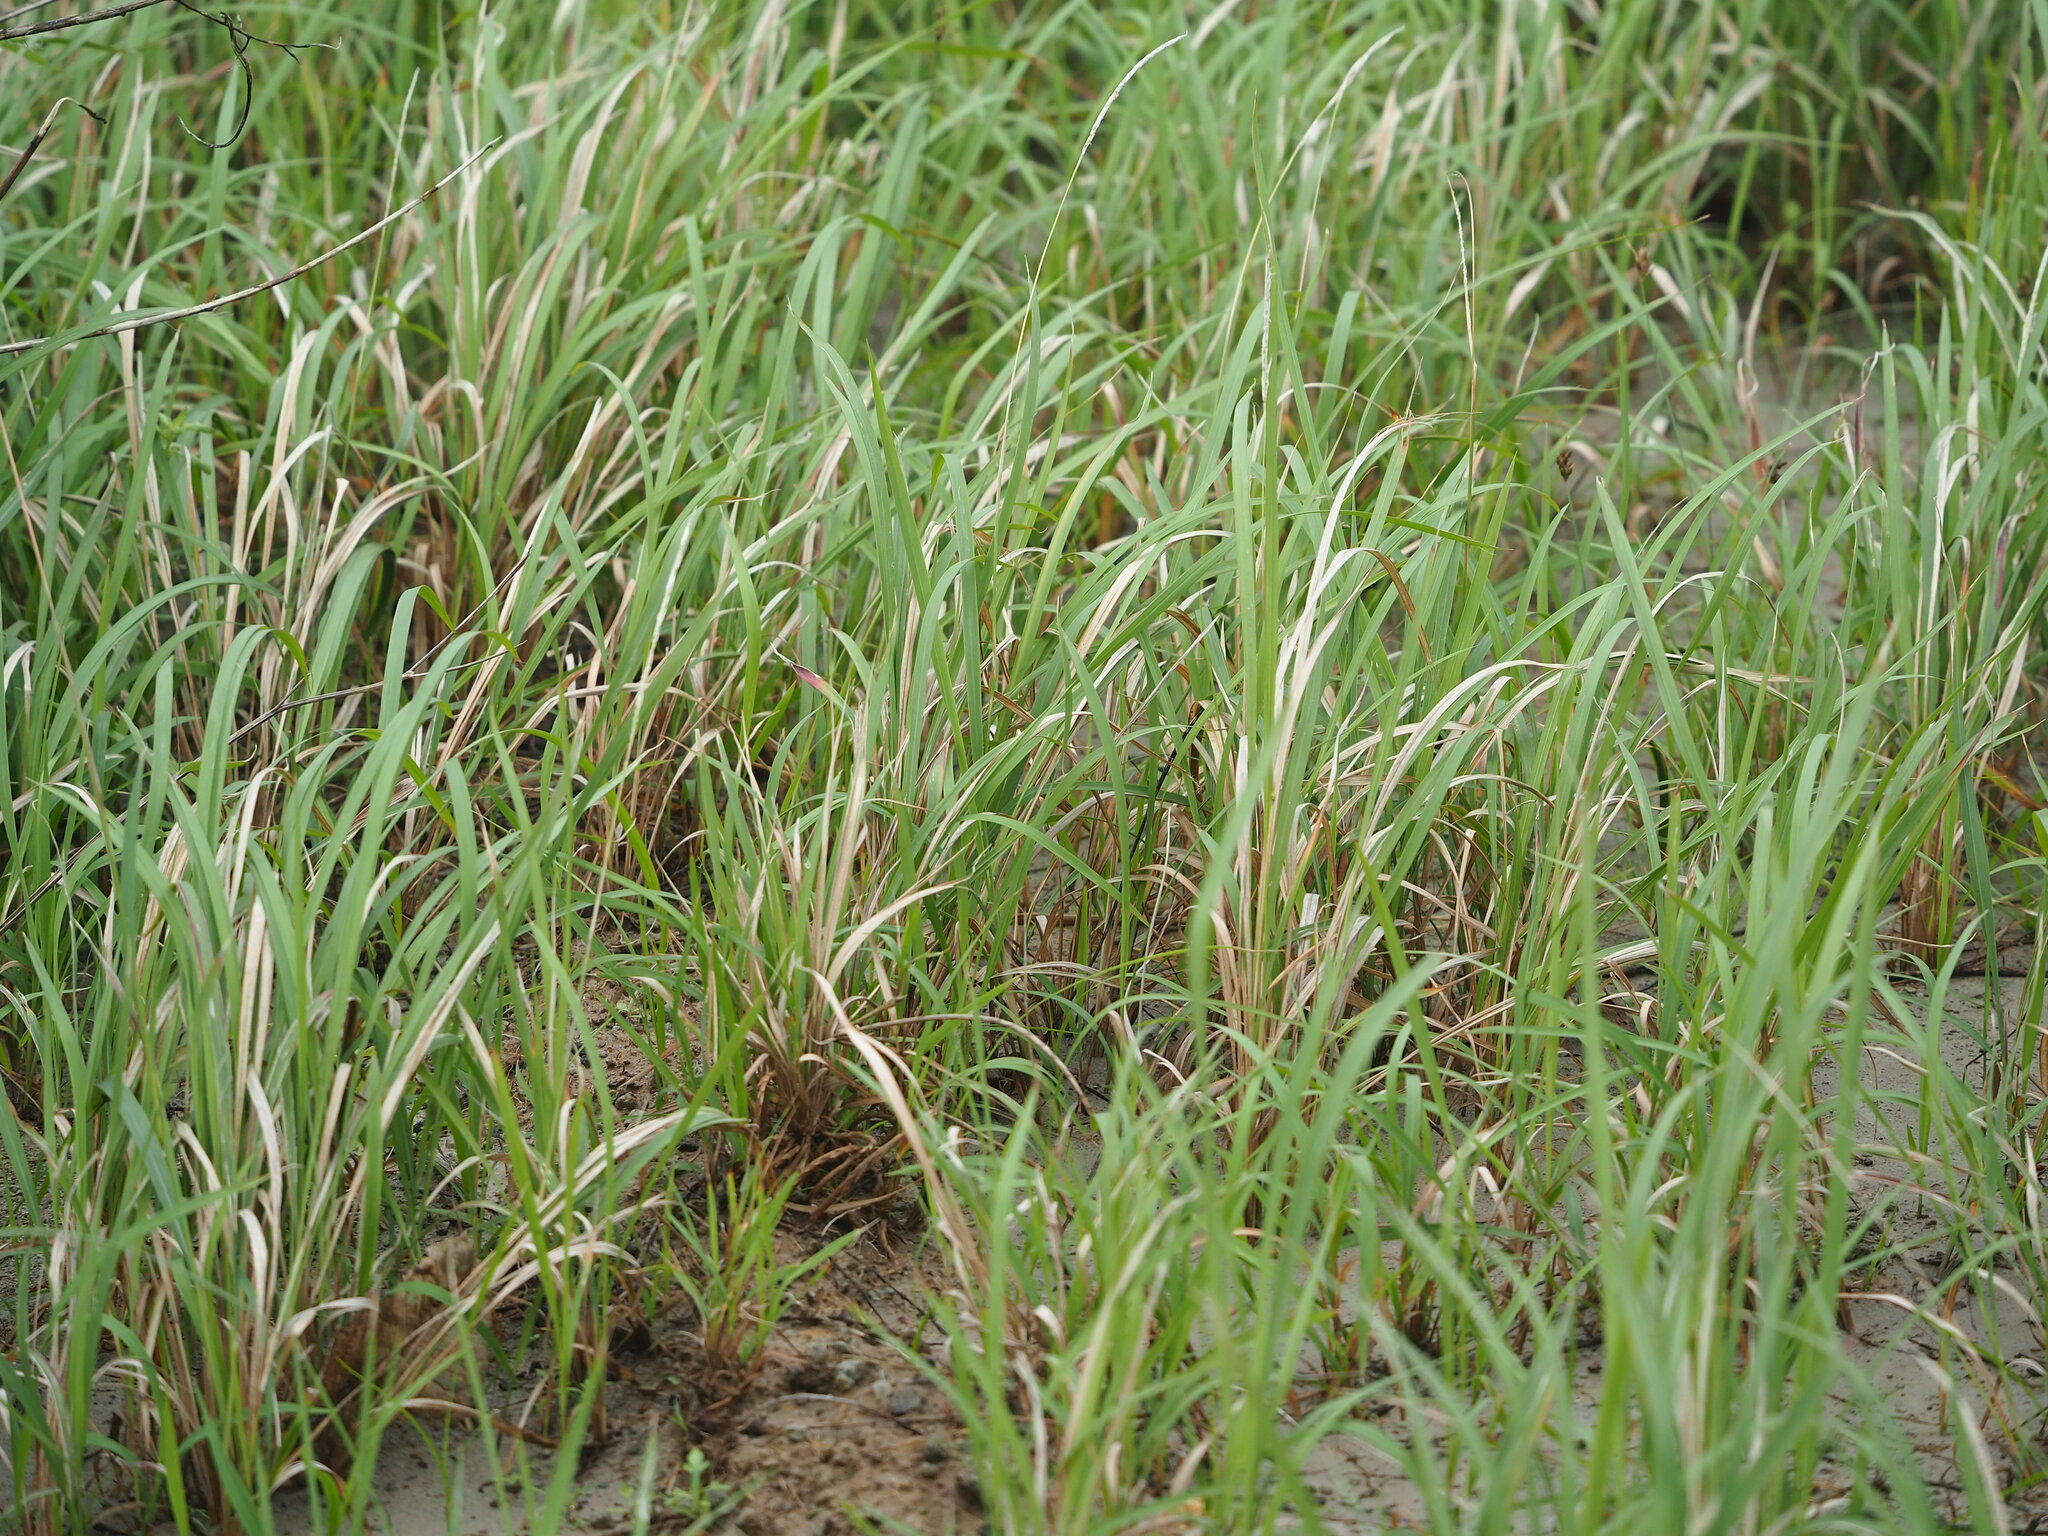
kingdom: Plantae
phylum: Tracheophyta
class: Liliopsida
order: Poales
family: Poaceae
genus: Imperata
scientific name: Imperata cylindrica
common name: Cogongrass
